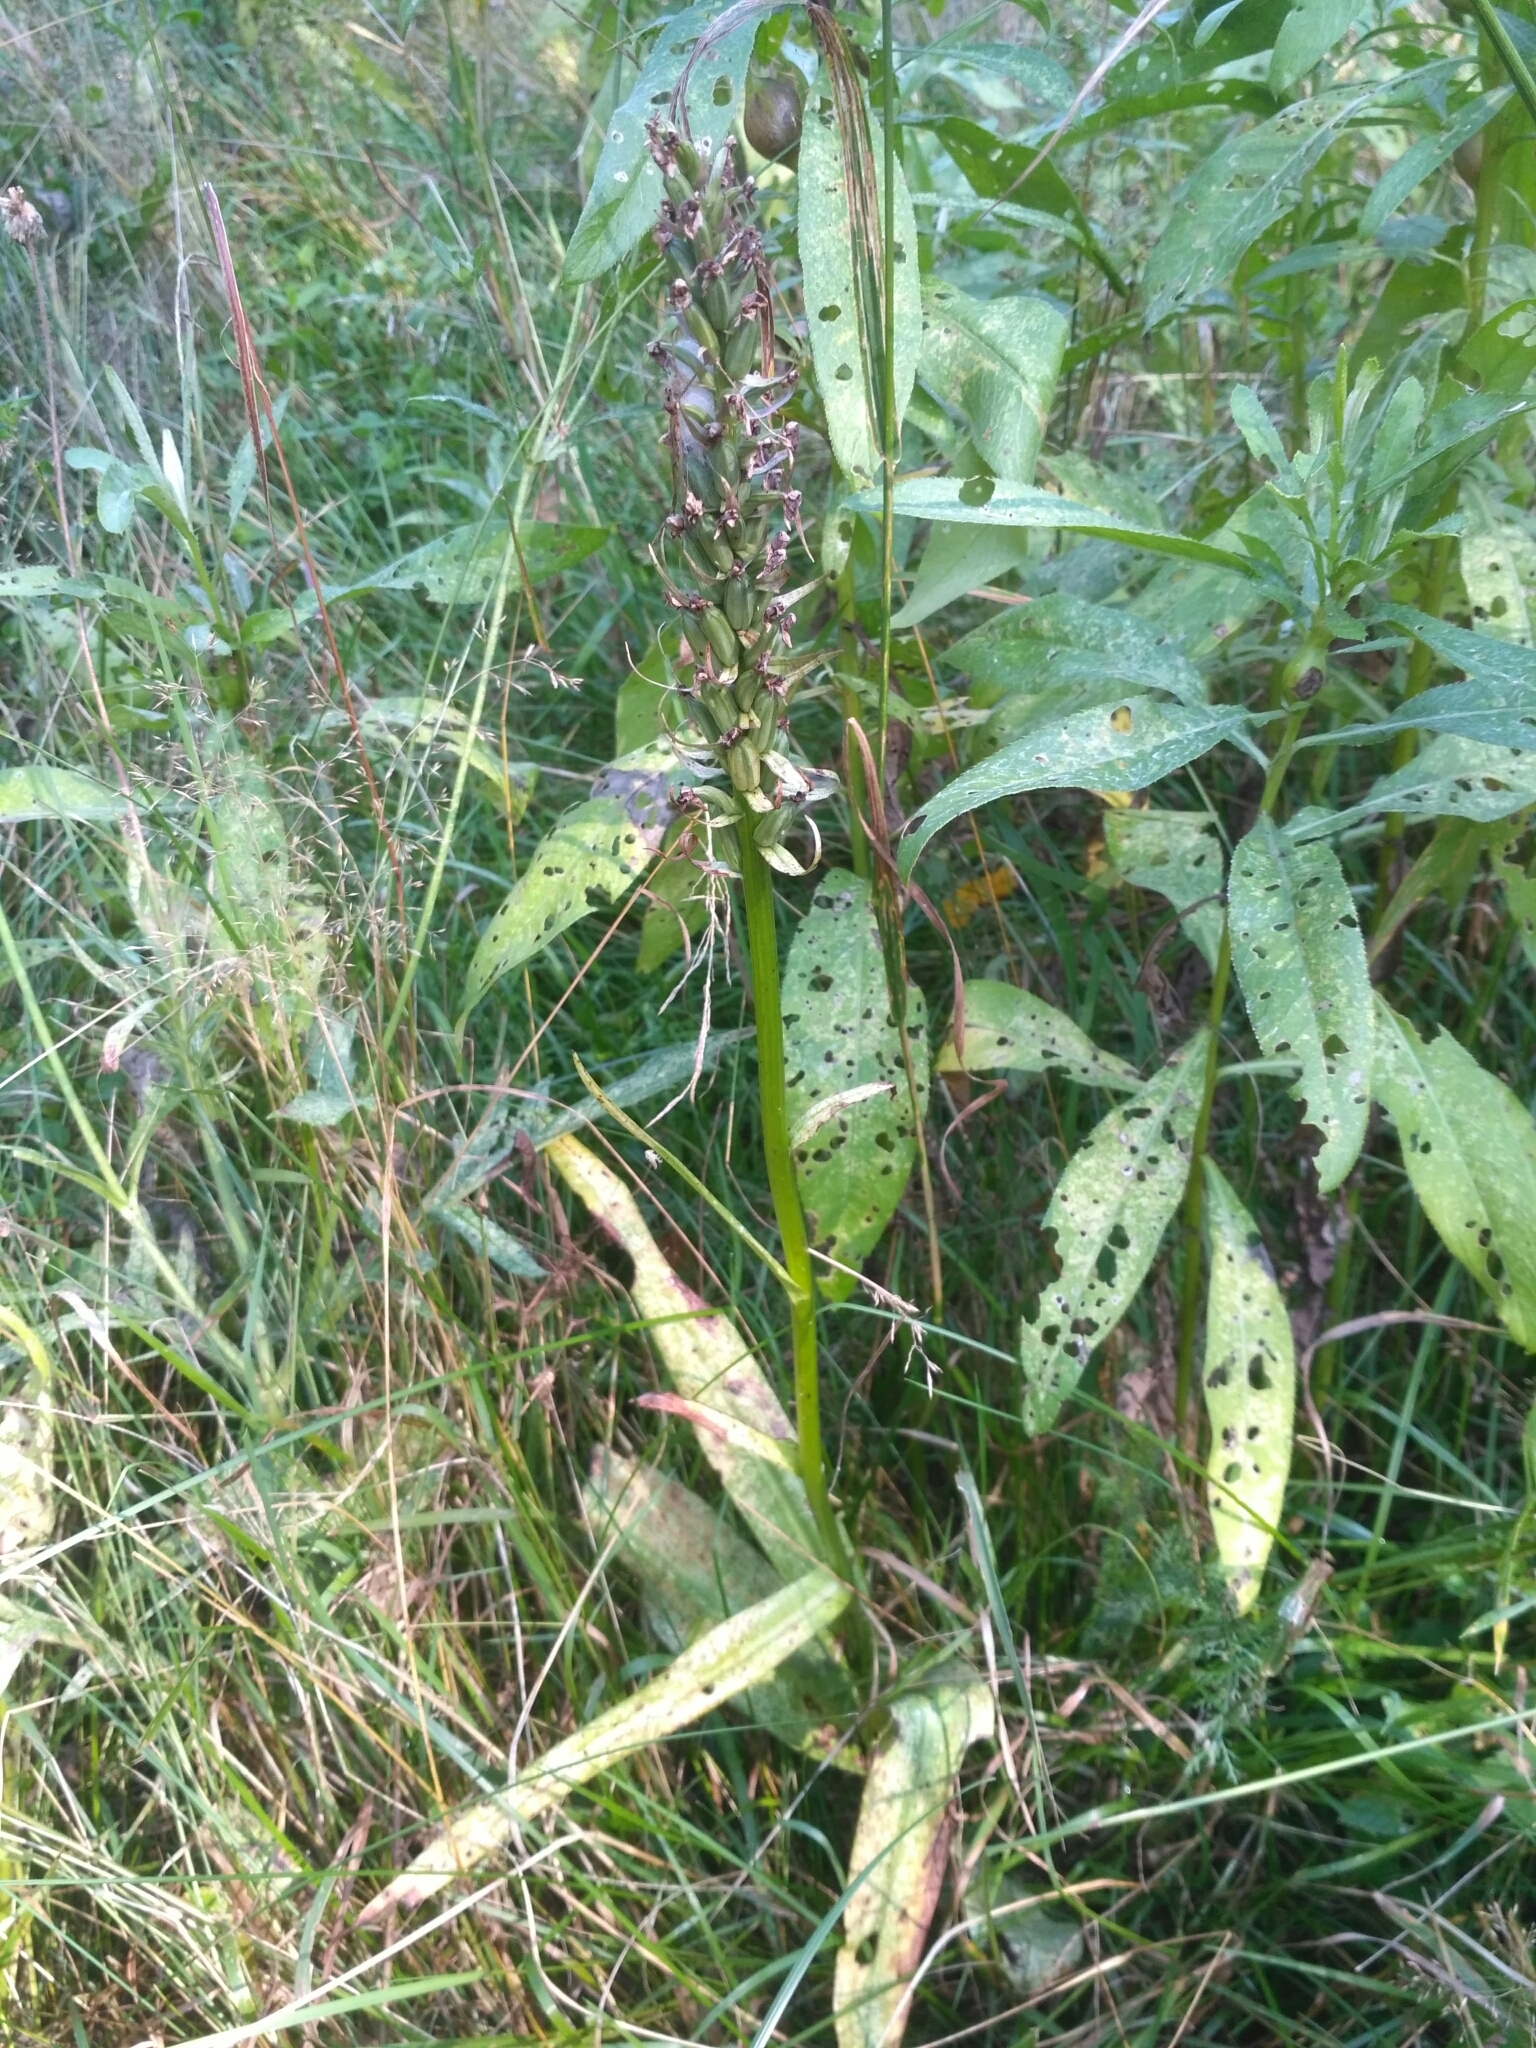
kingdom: Plantae
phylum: Tracheophyta
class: Liliopsida
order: Asparagales
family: Orchidaceae
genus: Dactylorhiza
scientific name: Dactylorhiza incarnata
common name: Early marsh-orchid
